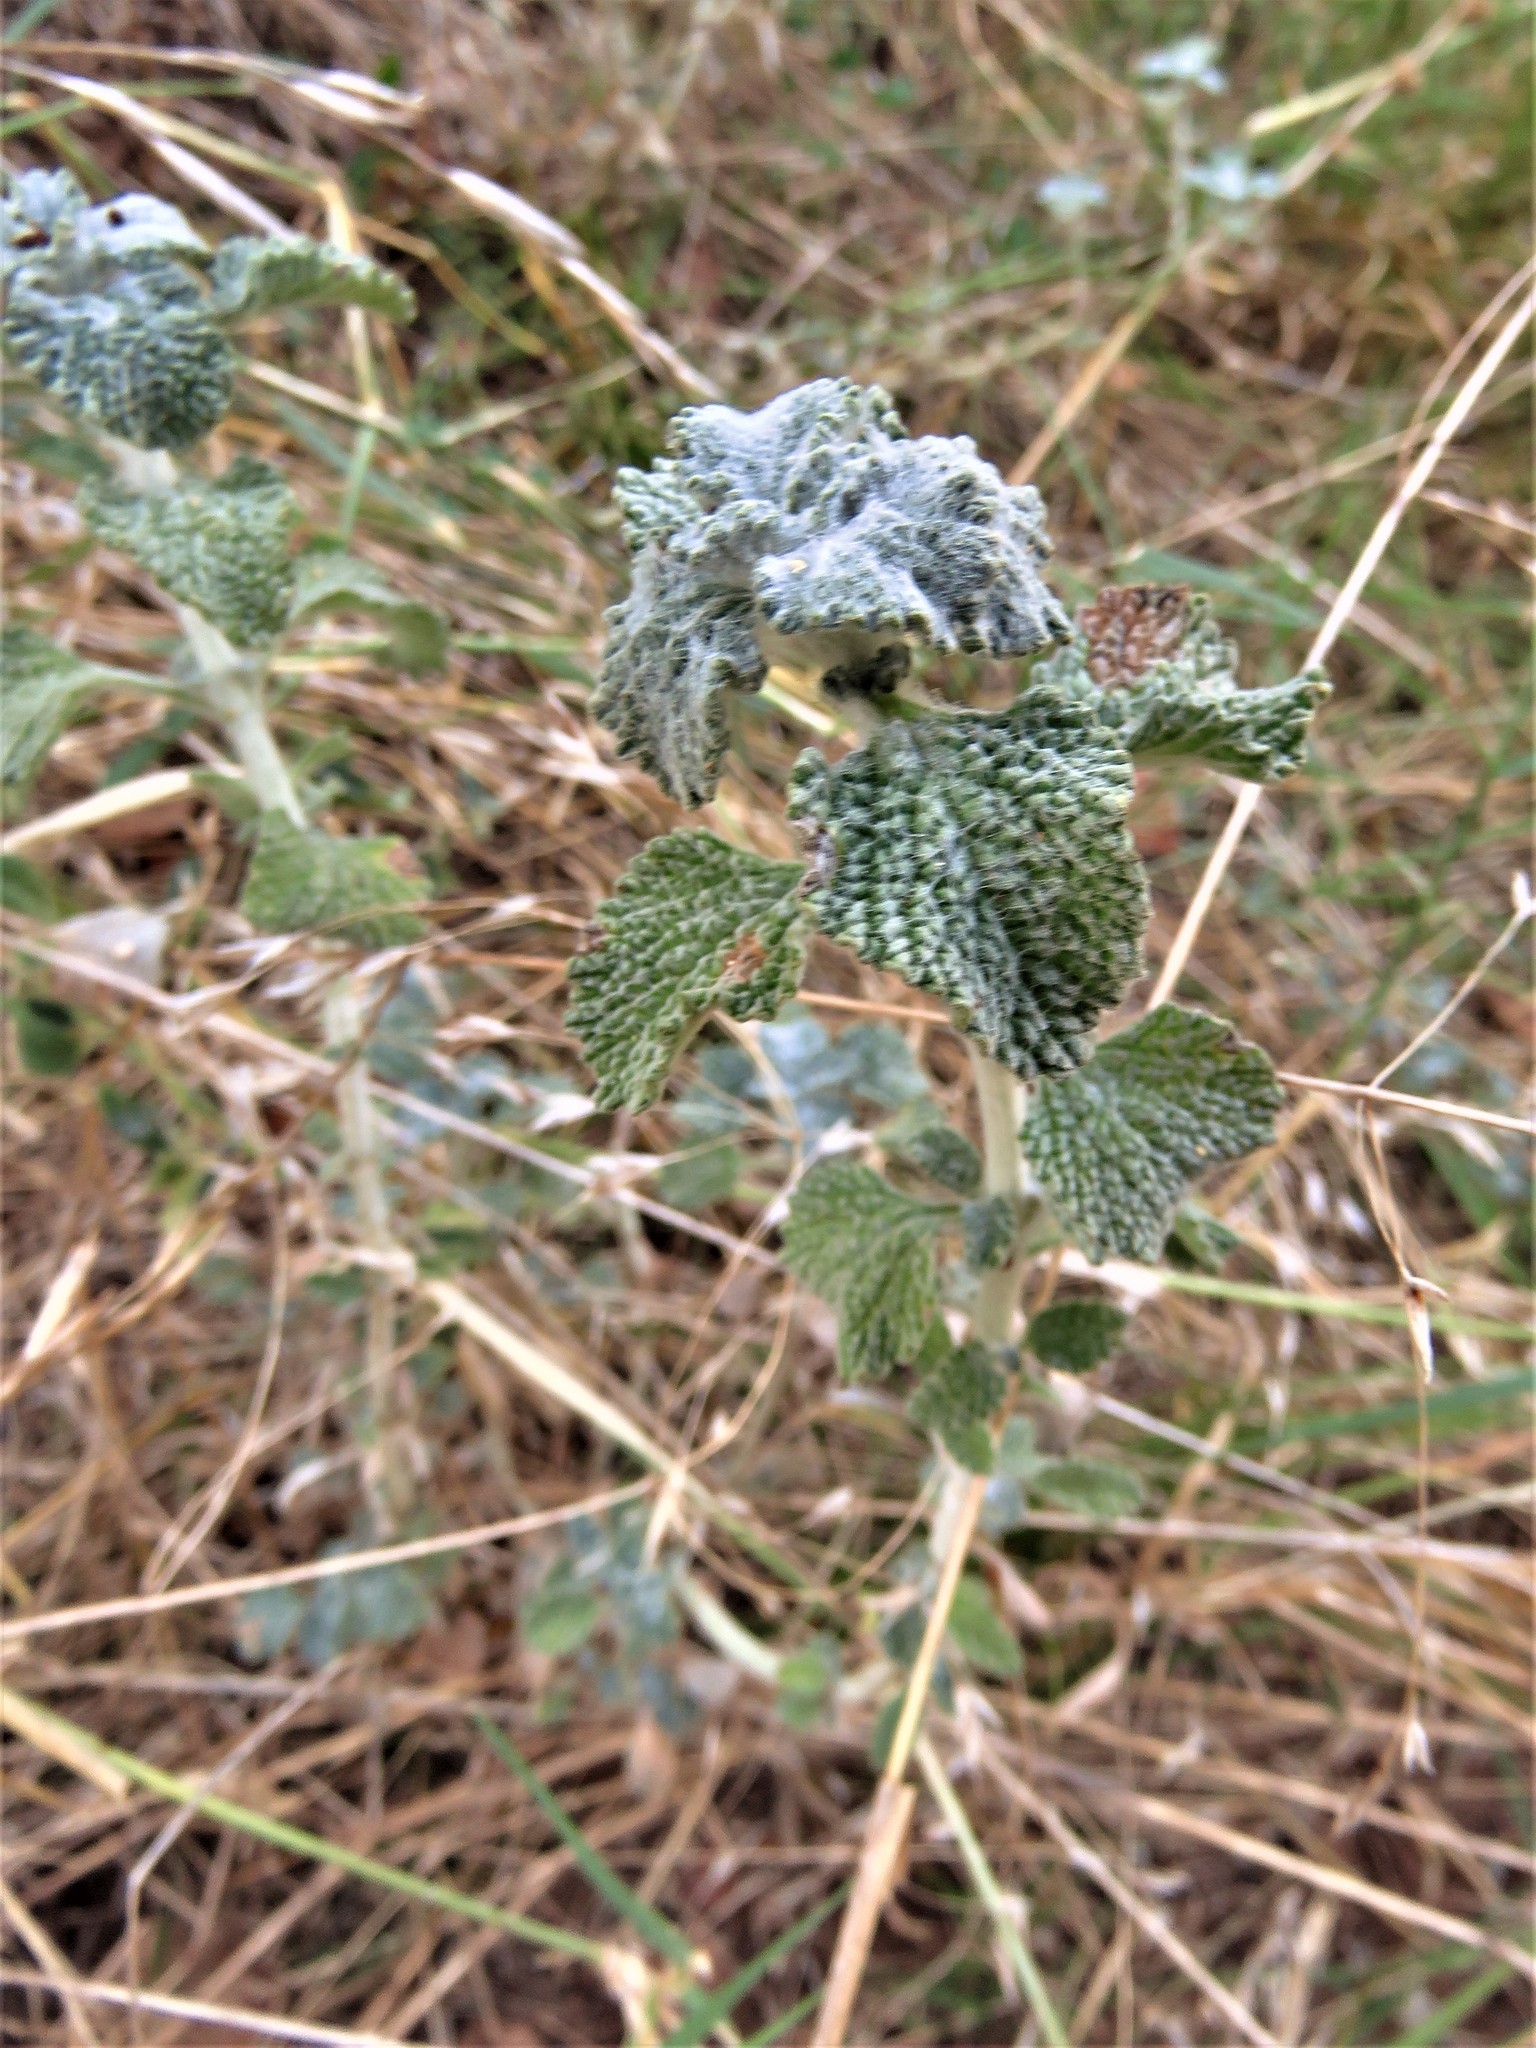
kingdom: Plantae
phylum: Tracheophyta
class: Magnoliopsida
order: Lamiales
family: Lamiaceae
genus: Marrubium
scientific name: Marrubium vulgare
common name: Horehound
